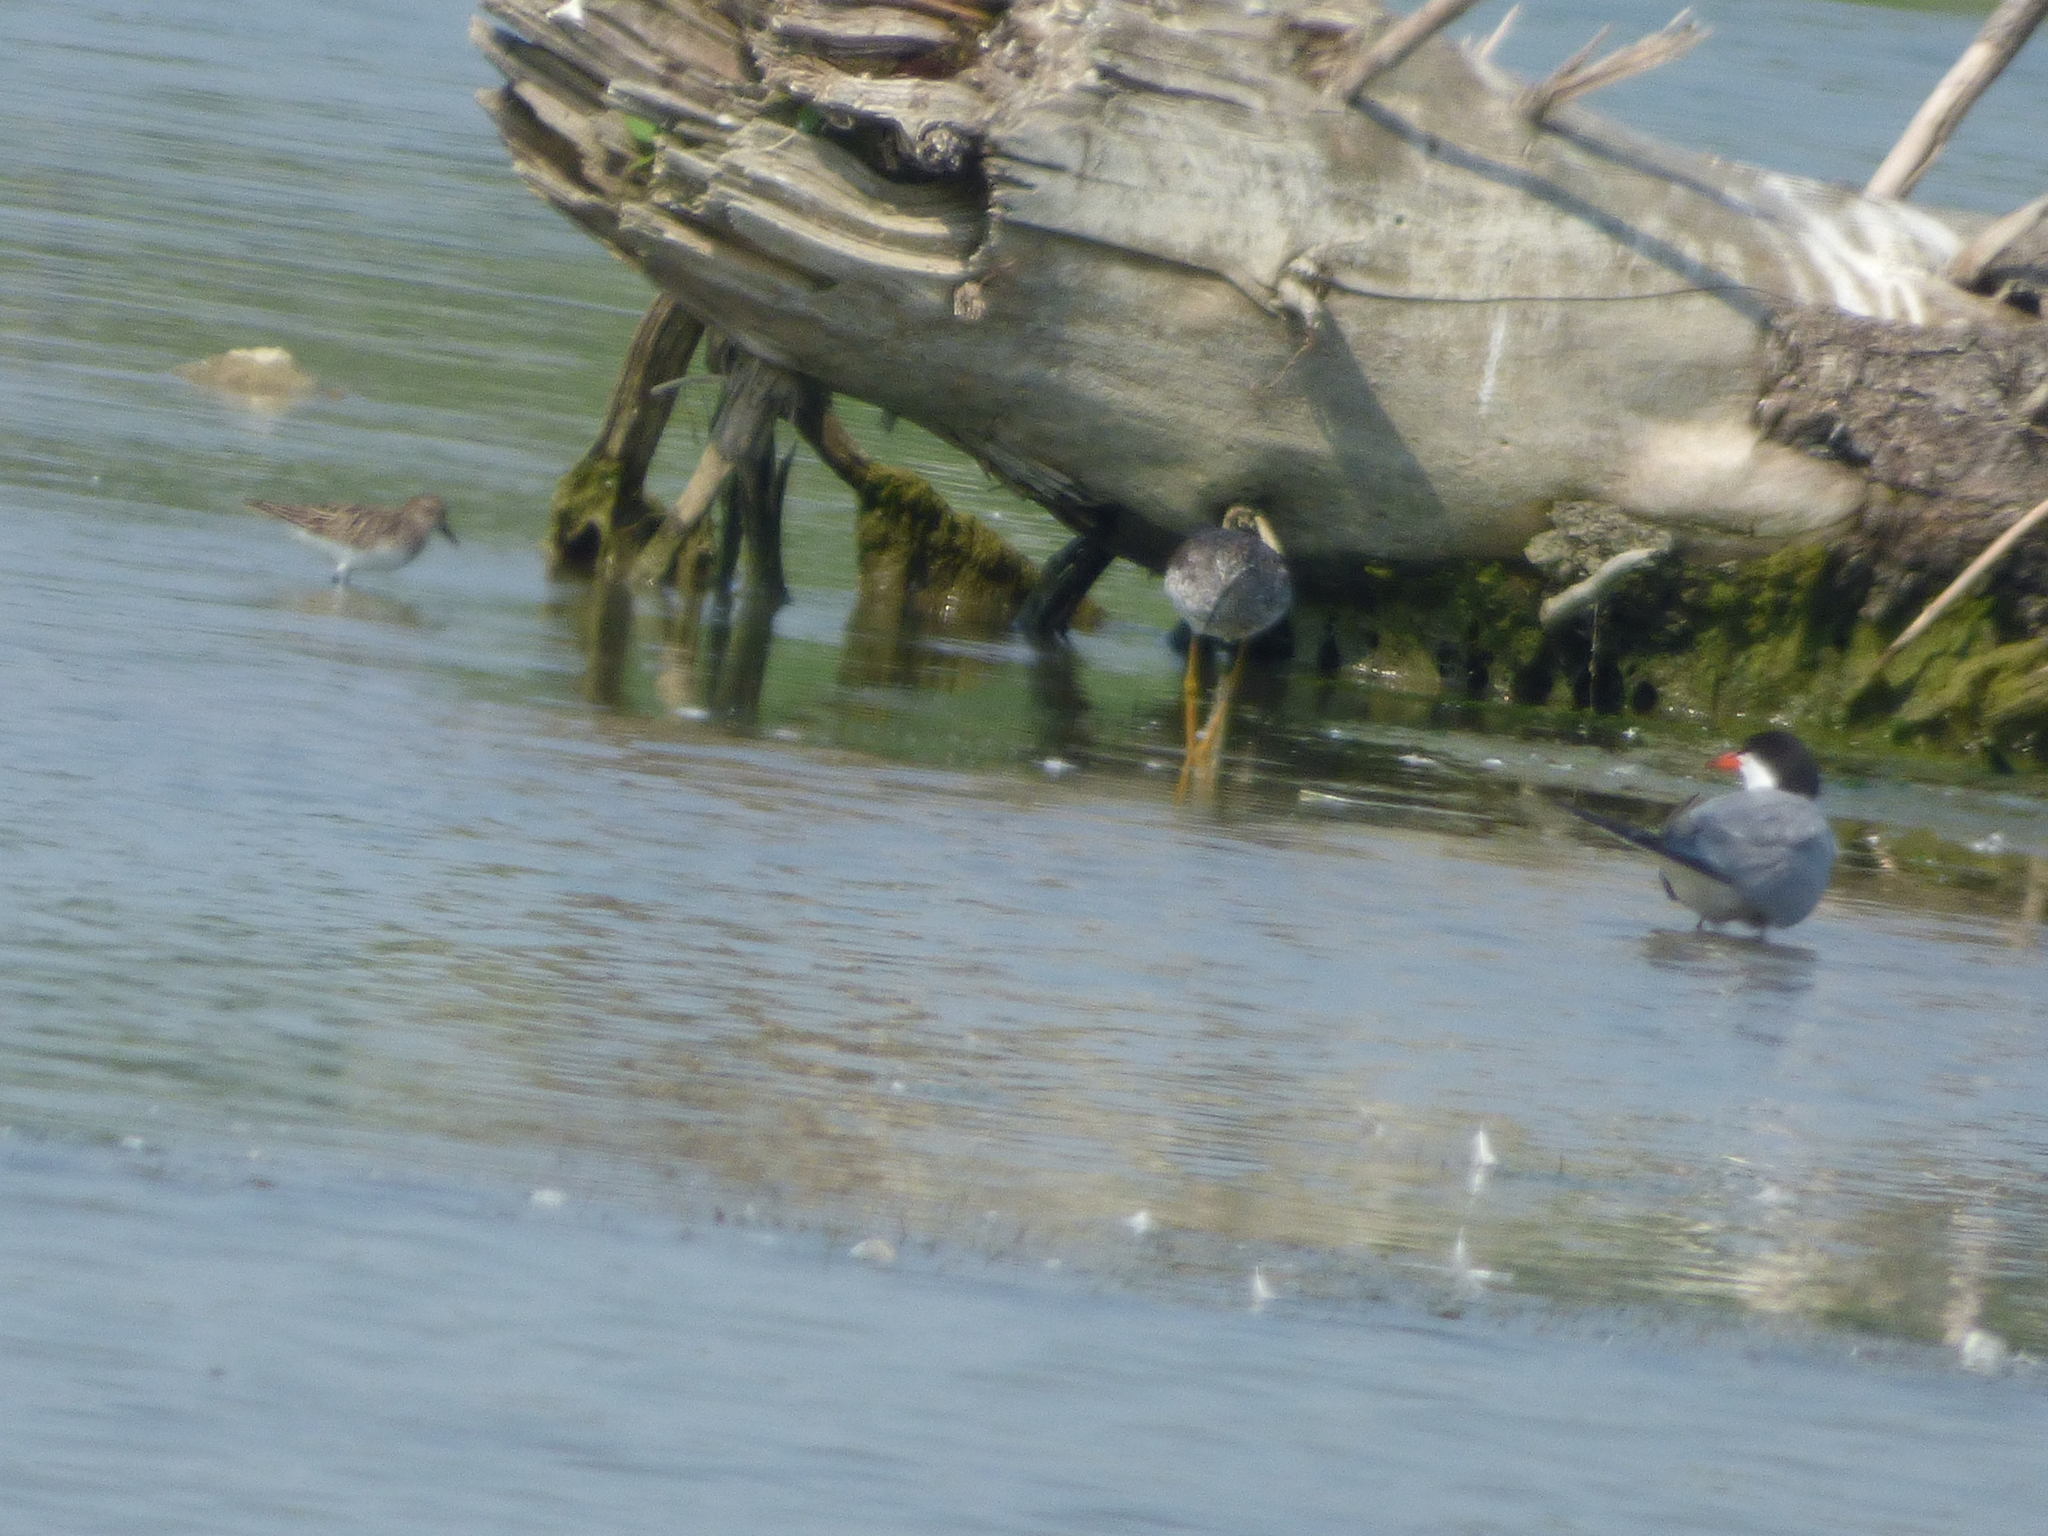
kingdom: Animalia
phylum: Chordata
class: Aves
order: Charadriiformes
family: Scolopacidae
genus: Tringa
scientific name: Tringa flavipes
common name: Lesser yellowlegs
